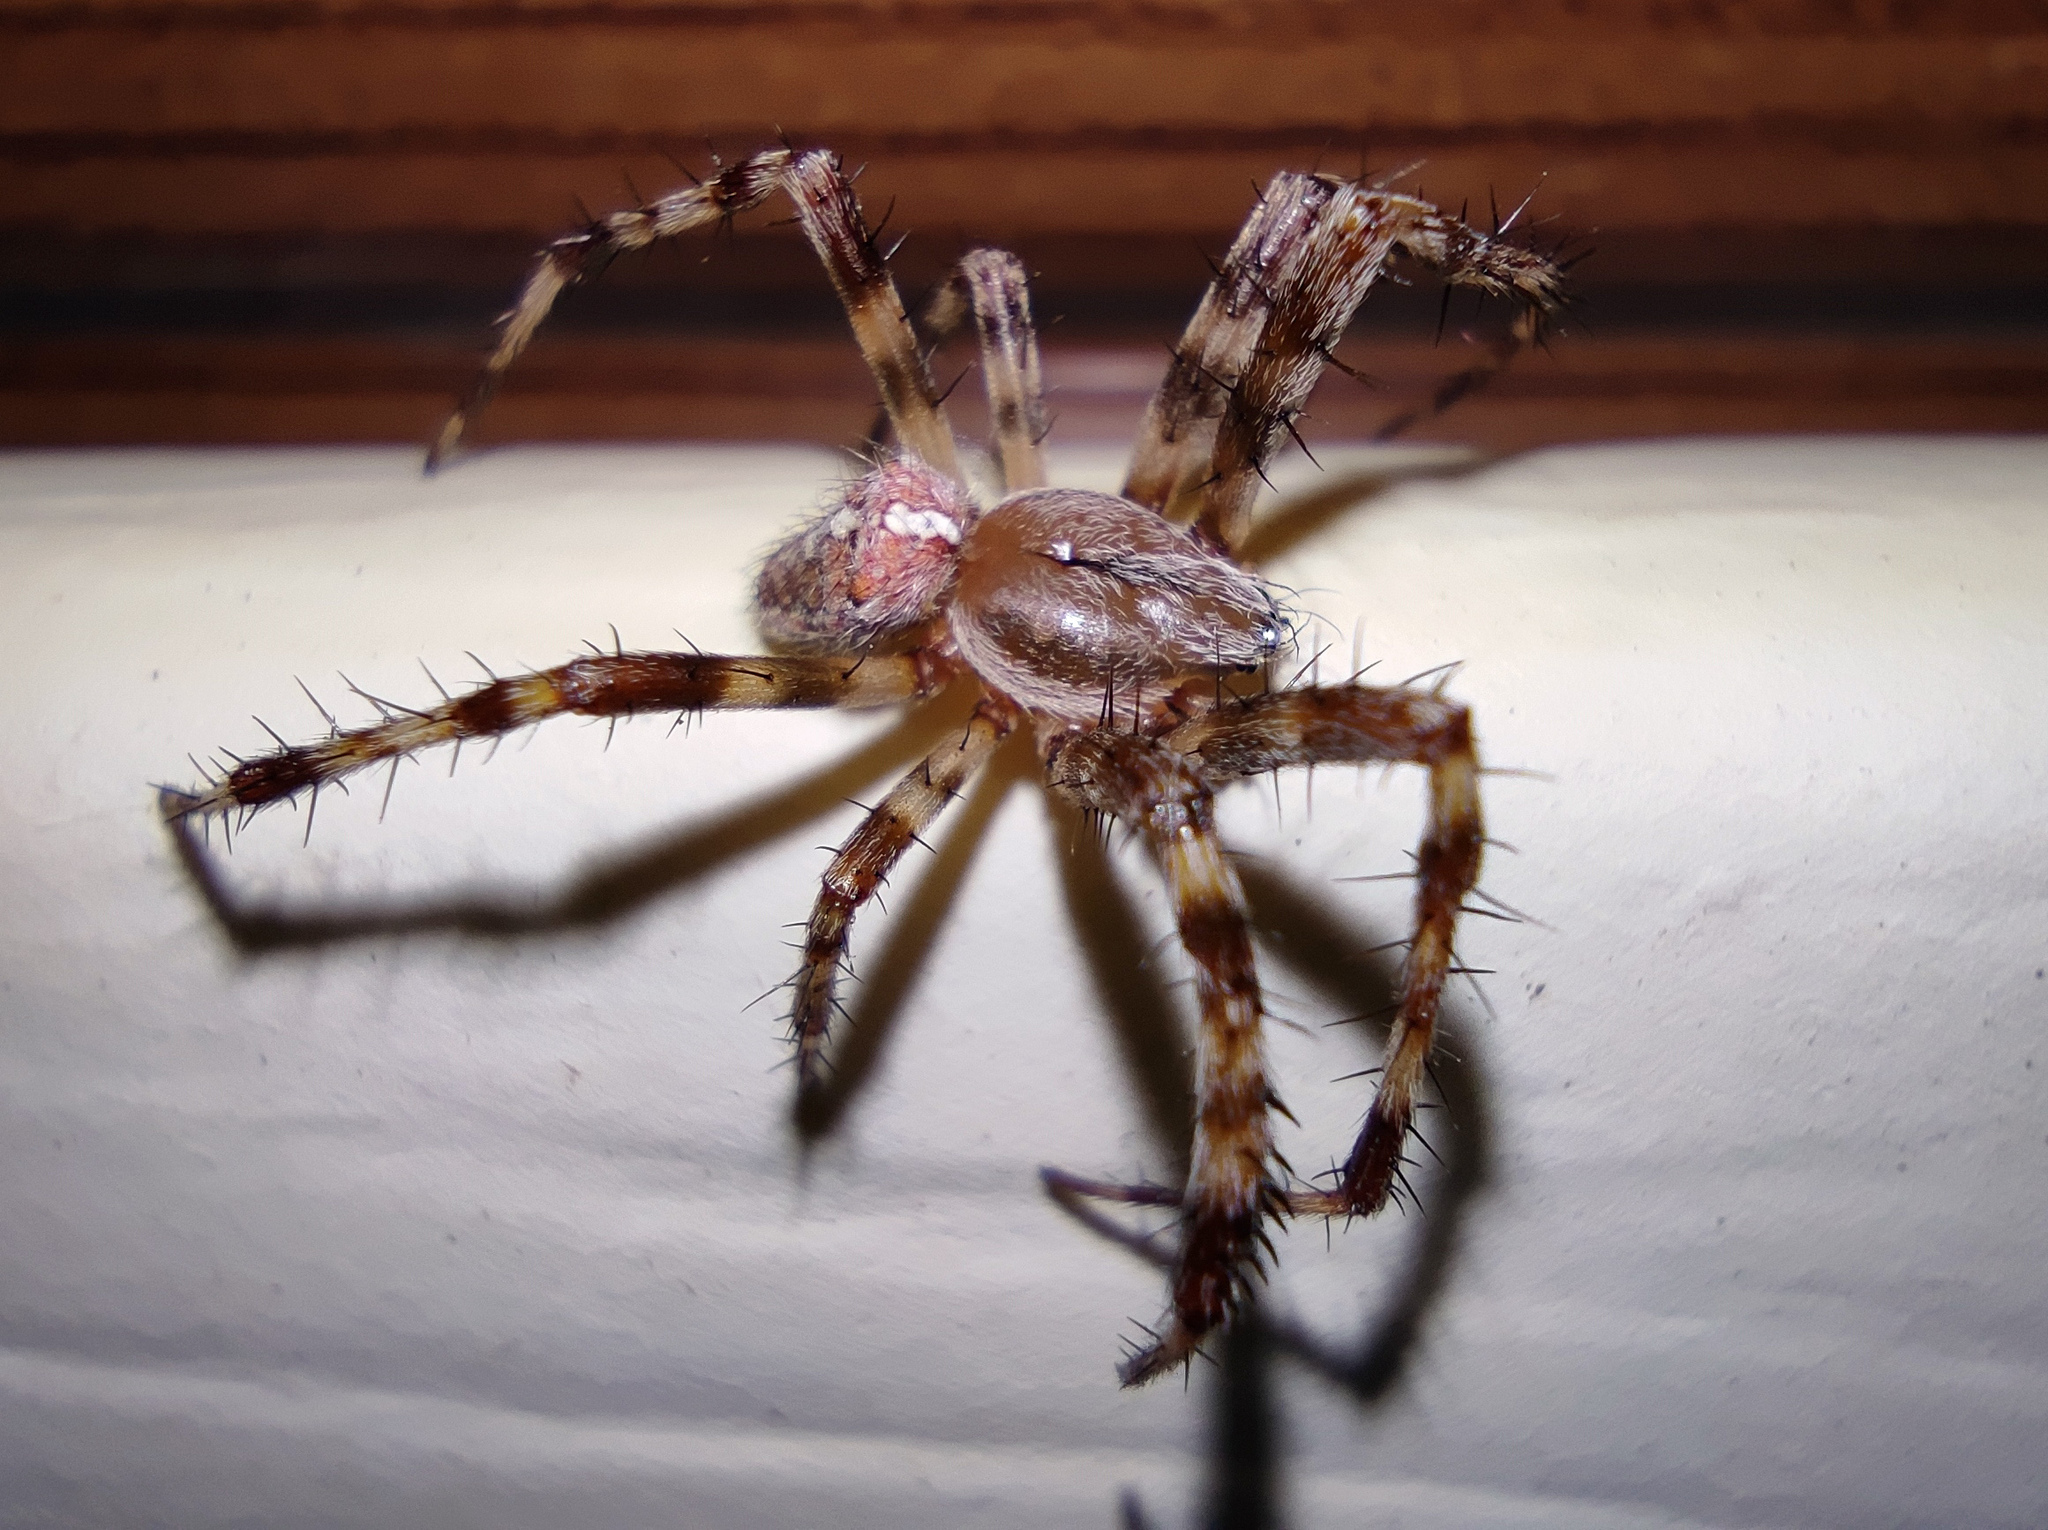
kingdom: Animalia
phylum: Arthropoda
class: Arachnida
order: Araneae
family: Araneidae
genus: Araneus
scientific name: Araneus diadematus
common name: Cross orbweaver
